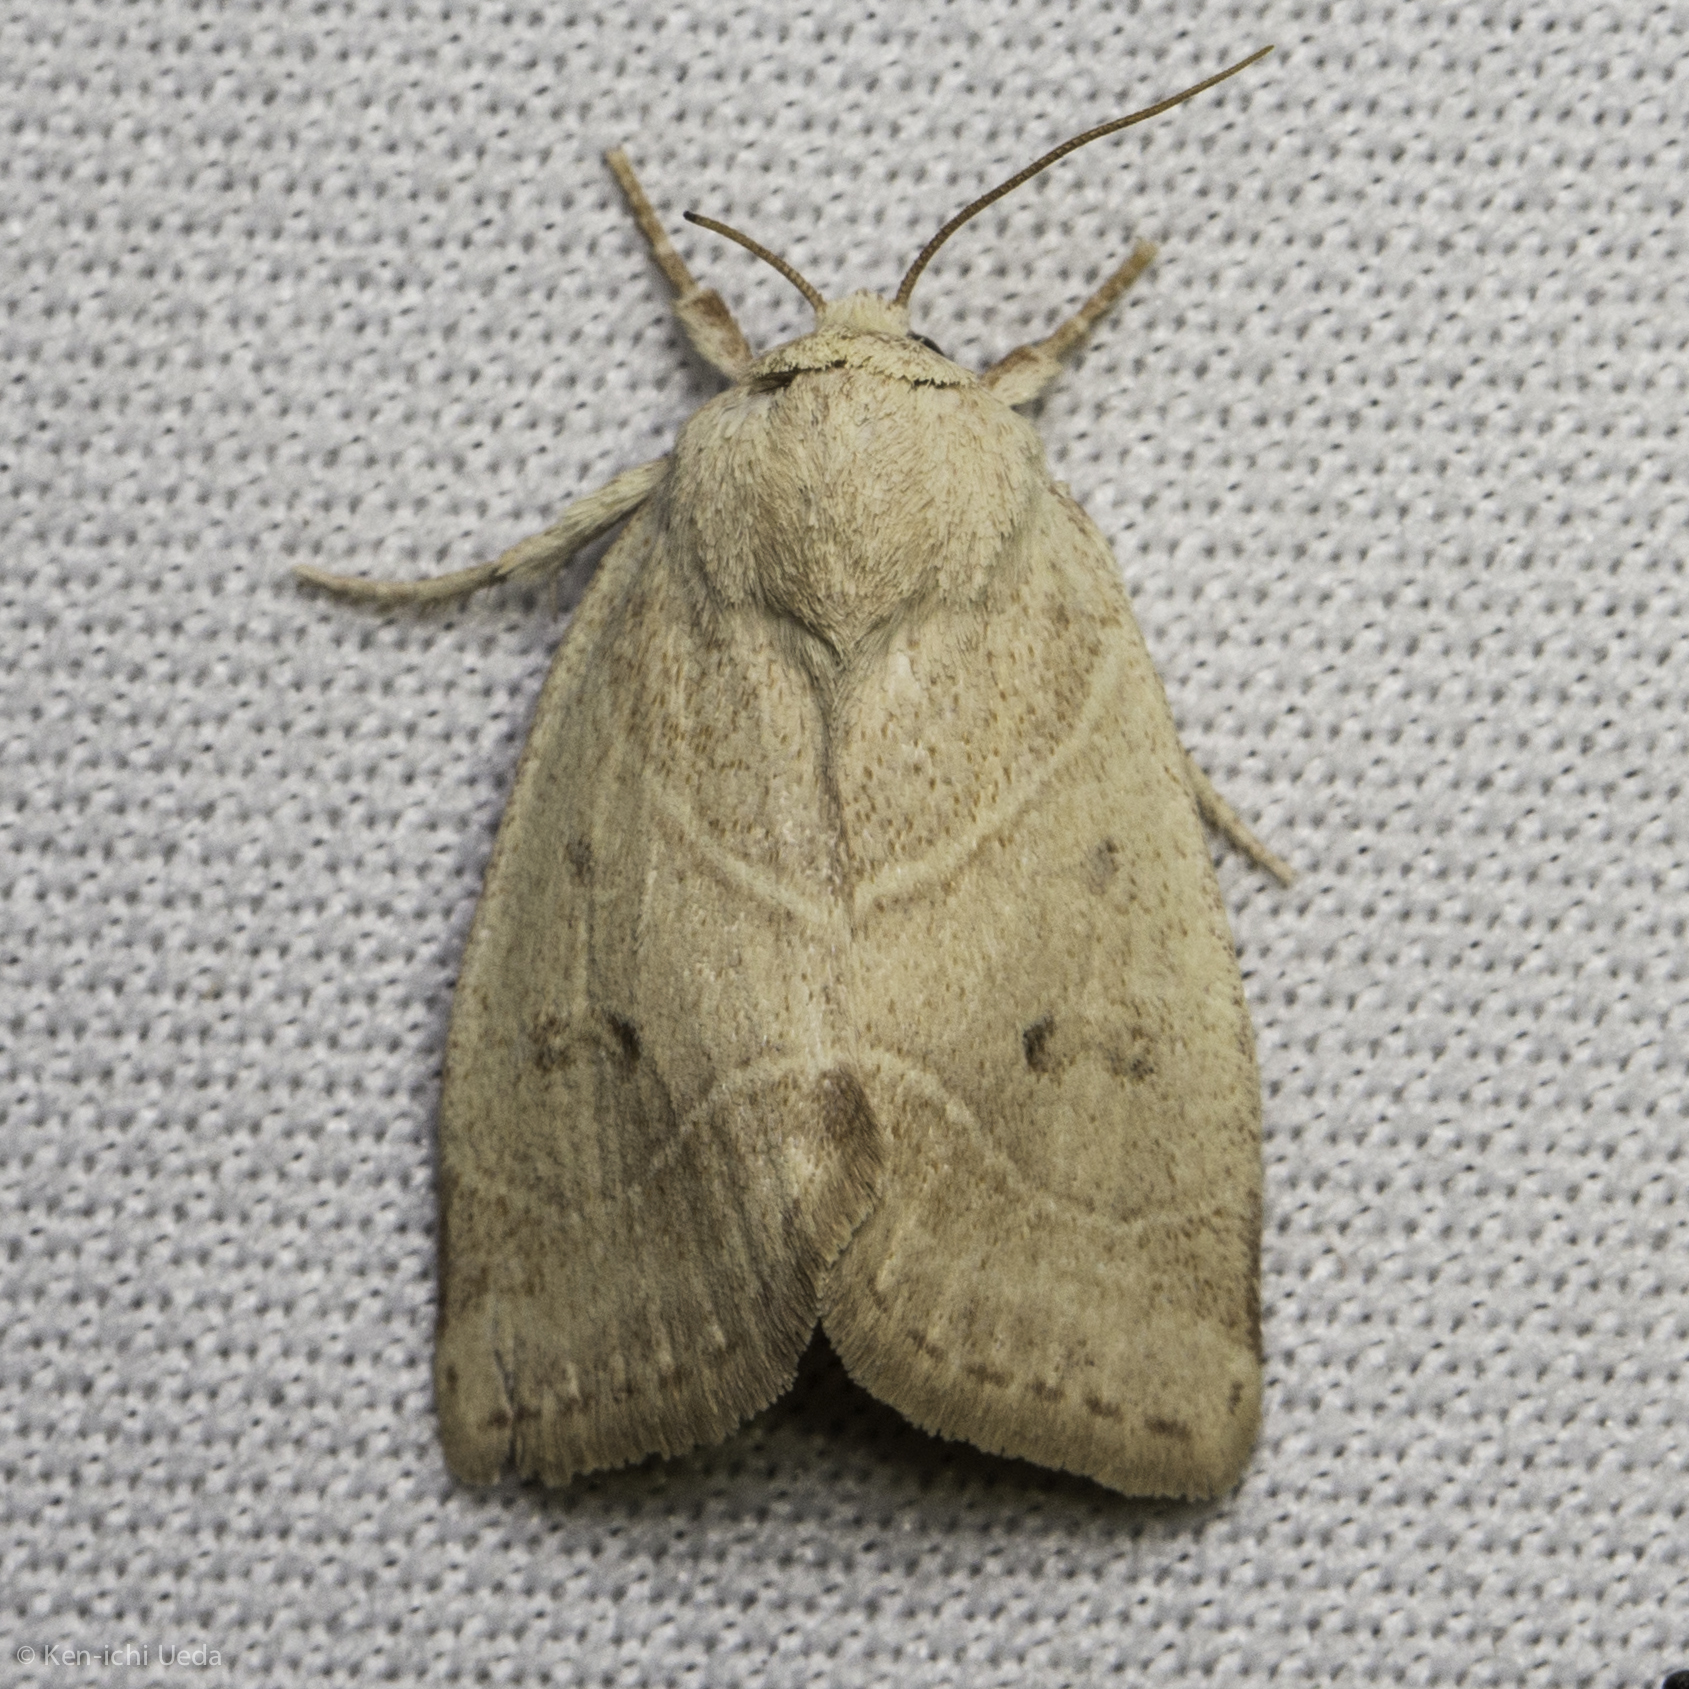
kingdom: Animalia
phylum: Arthropoda
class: Insecta
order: Lepidoptera
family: Noctuidae
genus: Cosmia
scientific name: Cosmia calami
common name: American dun-bar moth
